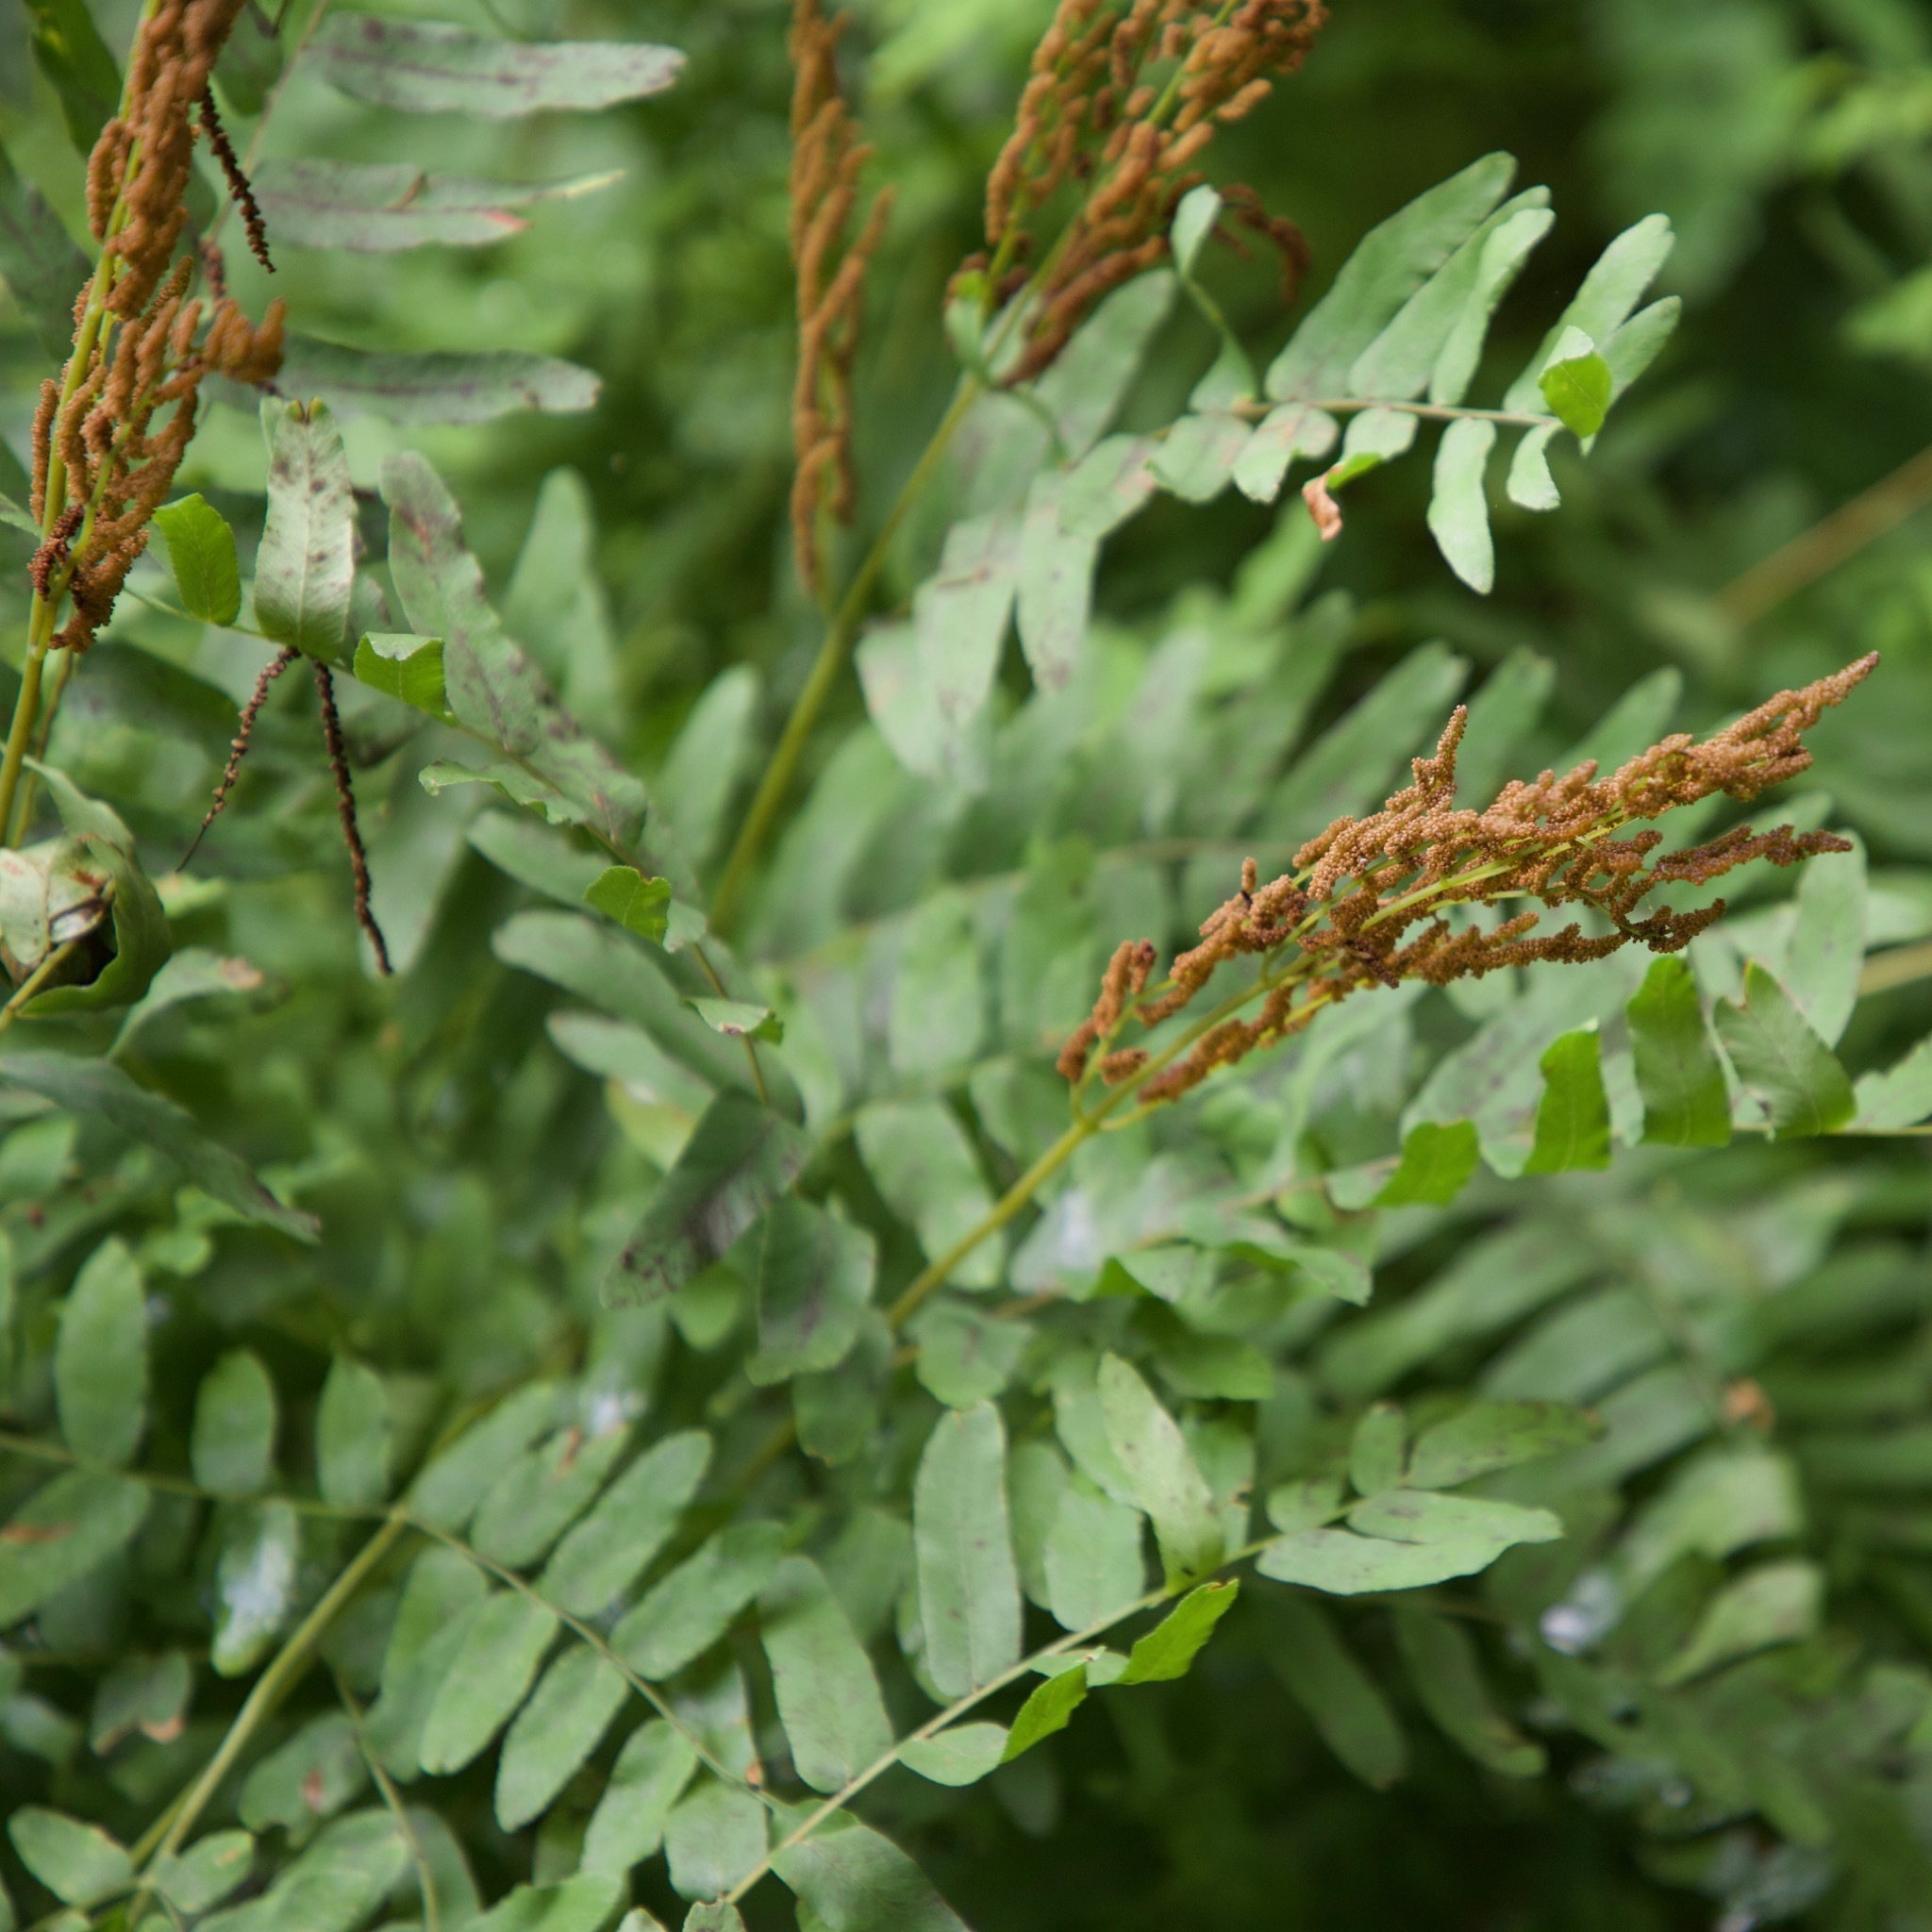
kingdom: Plantae
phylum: Tracheophyta
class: Polypodiopsida
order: Osmundales
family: Osmundaceae
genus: Osmunda
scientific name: Osmunda spectabilis
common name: American royal fern
